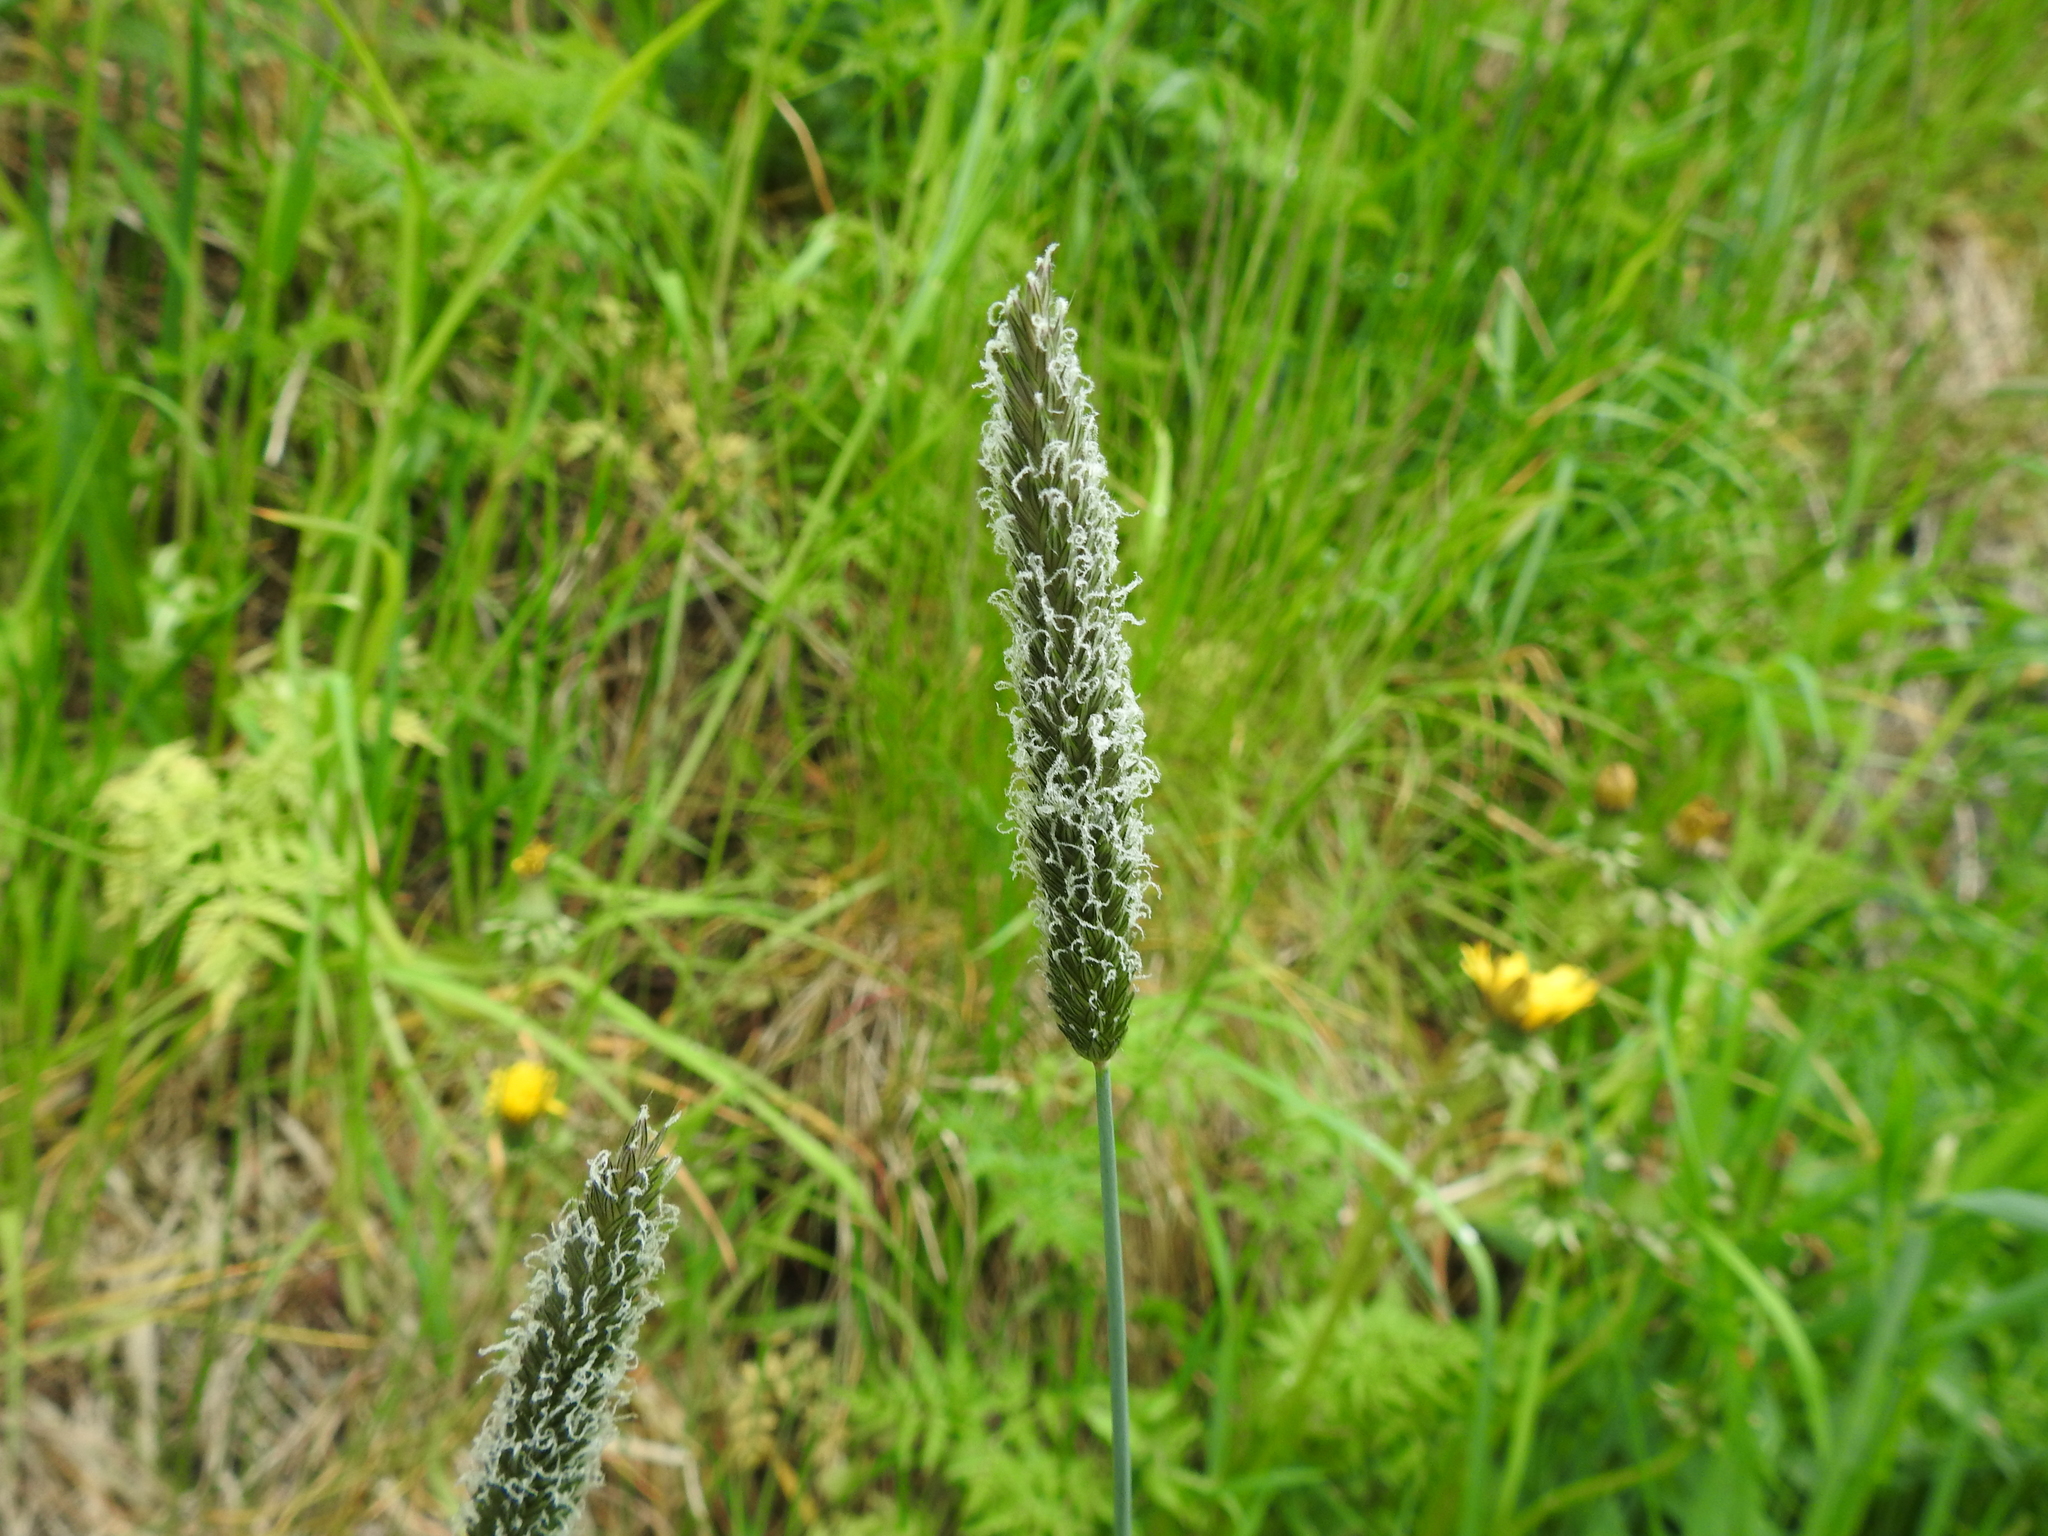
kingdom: Plantae
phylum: Tracheophyta
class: Liliopsida
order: Poales
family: Poaceae
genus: Alopecurus
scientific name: Alopecurus pratensis
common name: Meadow foxtail
